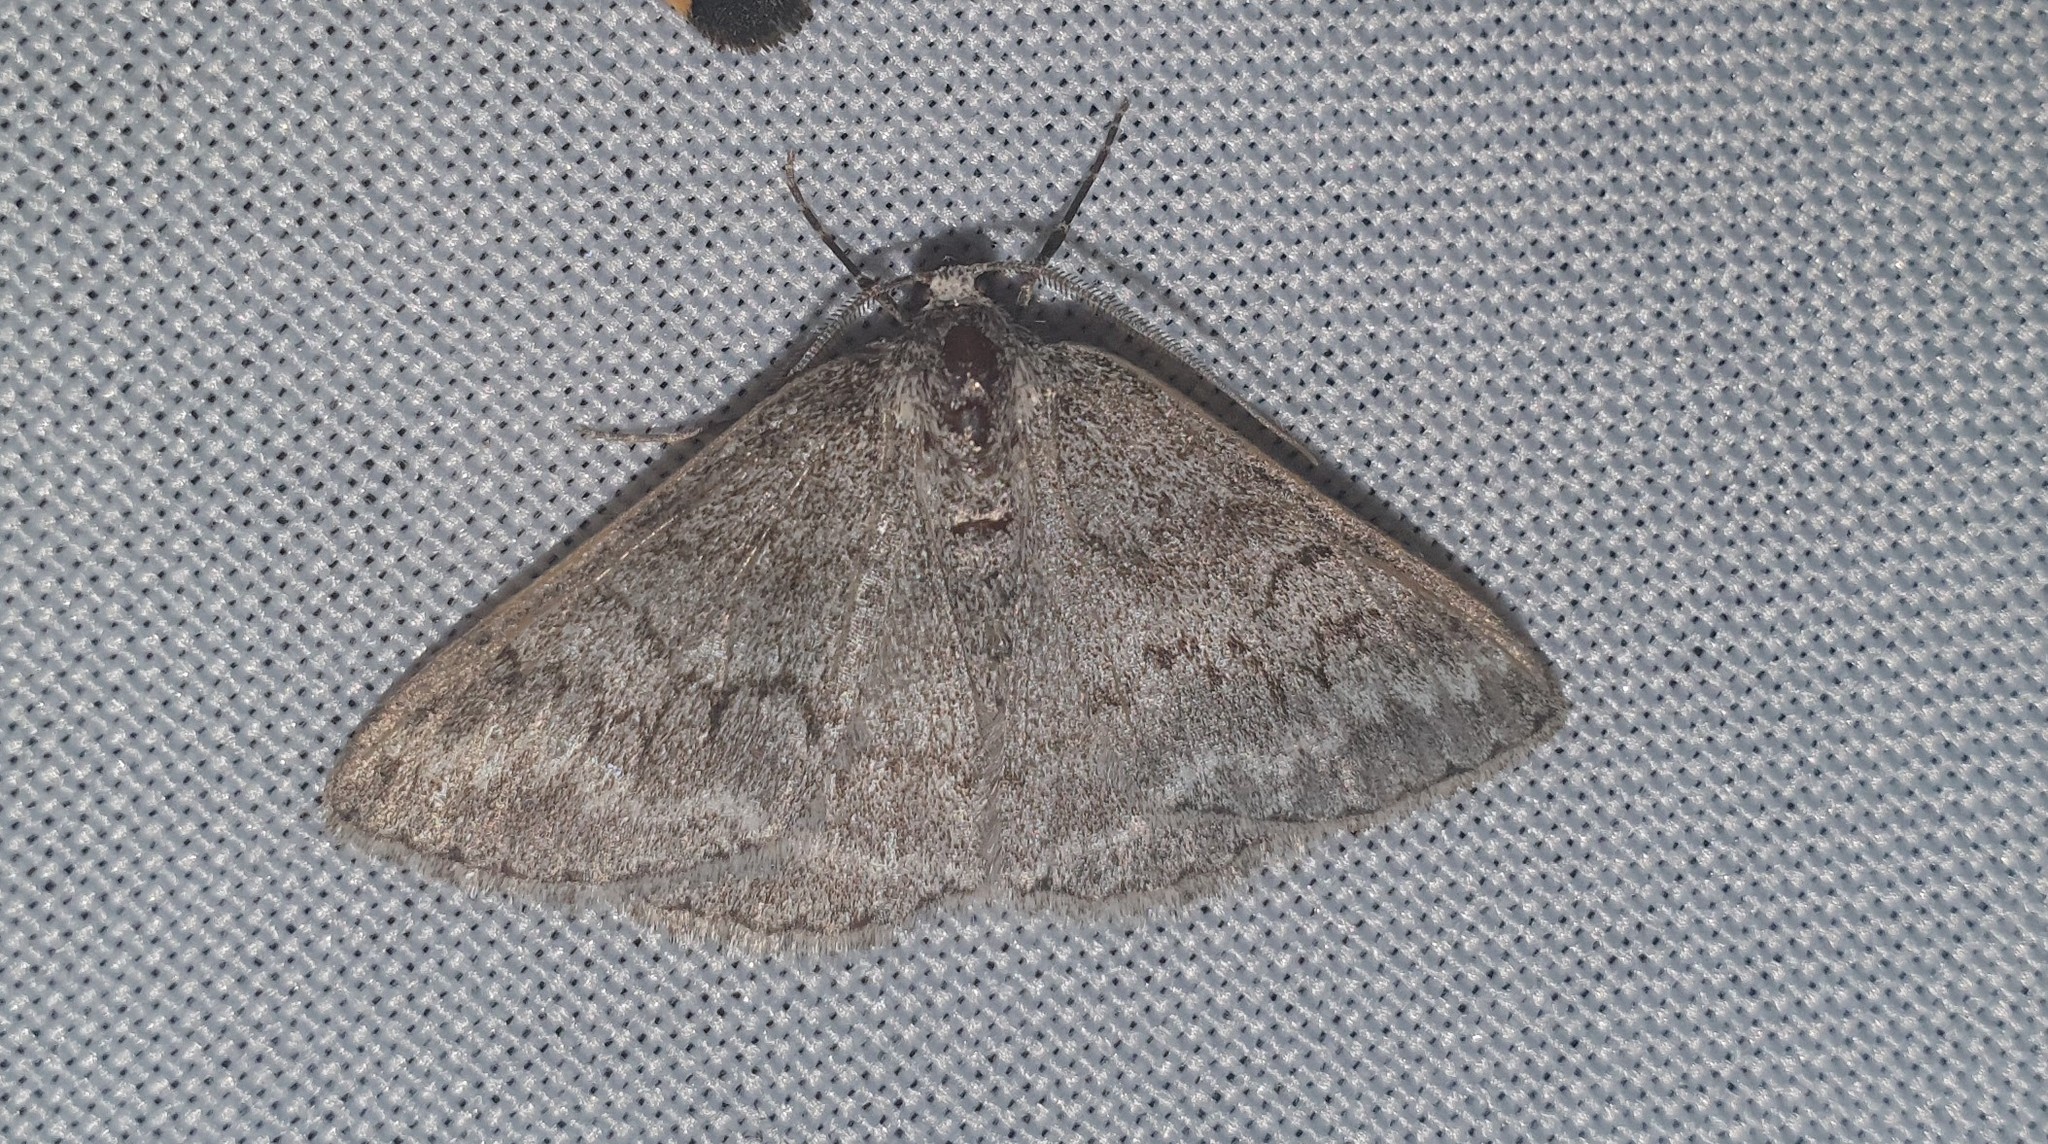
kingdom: Animalia
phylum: Arthropoda
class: Insecta
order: Lepidoptera
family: Geometridae
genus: Pseudoterpna
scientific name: Pseudoterpna coronillaria
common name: Jersey emerald
